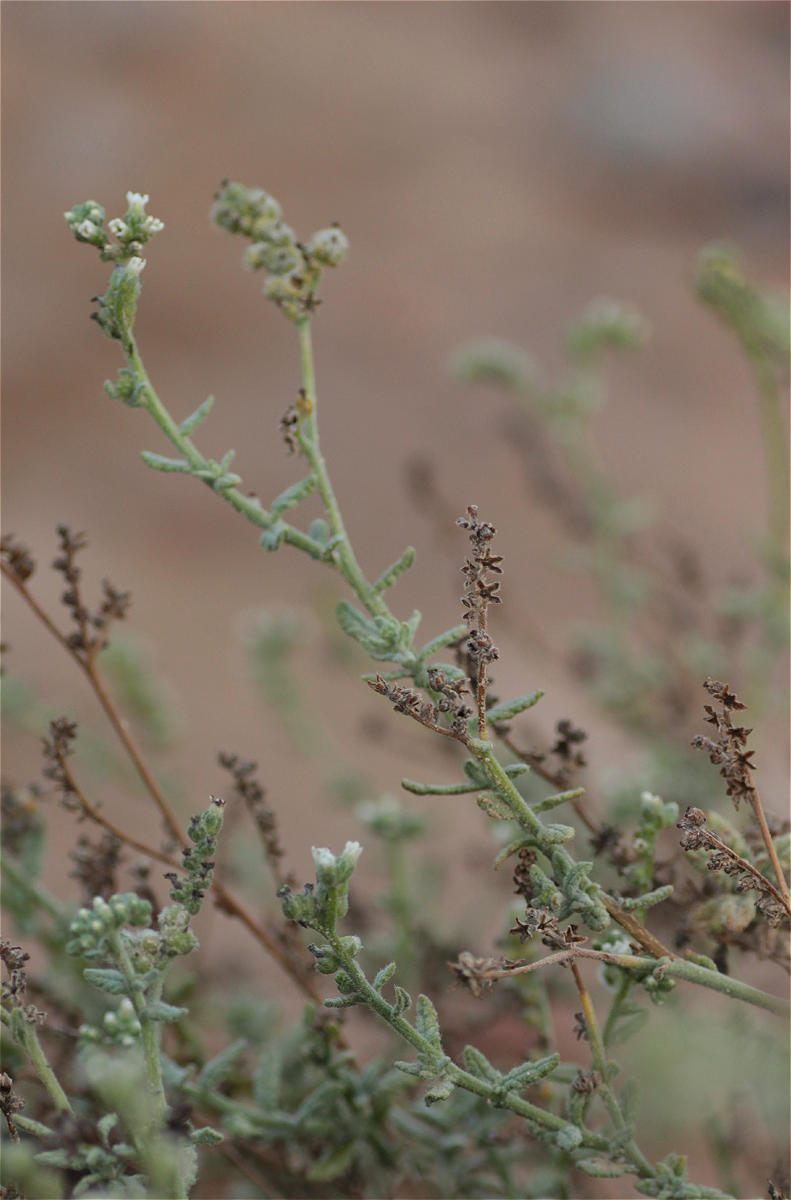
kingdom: Plantae
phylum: Tracheophyta
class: Magnoliopsida
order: Boraginales
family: Heliotropiaceae
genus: Heliotropium
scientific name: Heliotropium bacciferum
